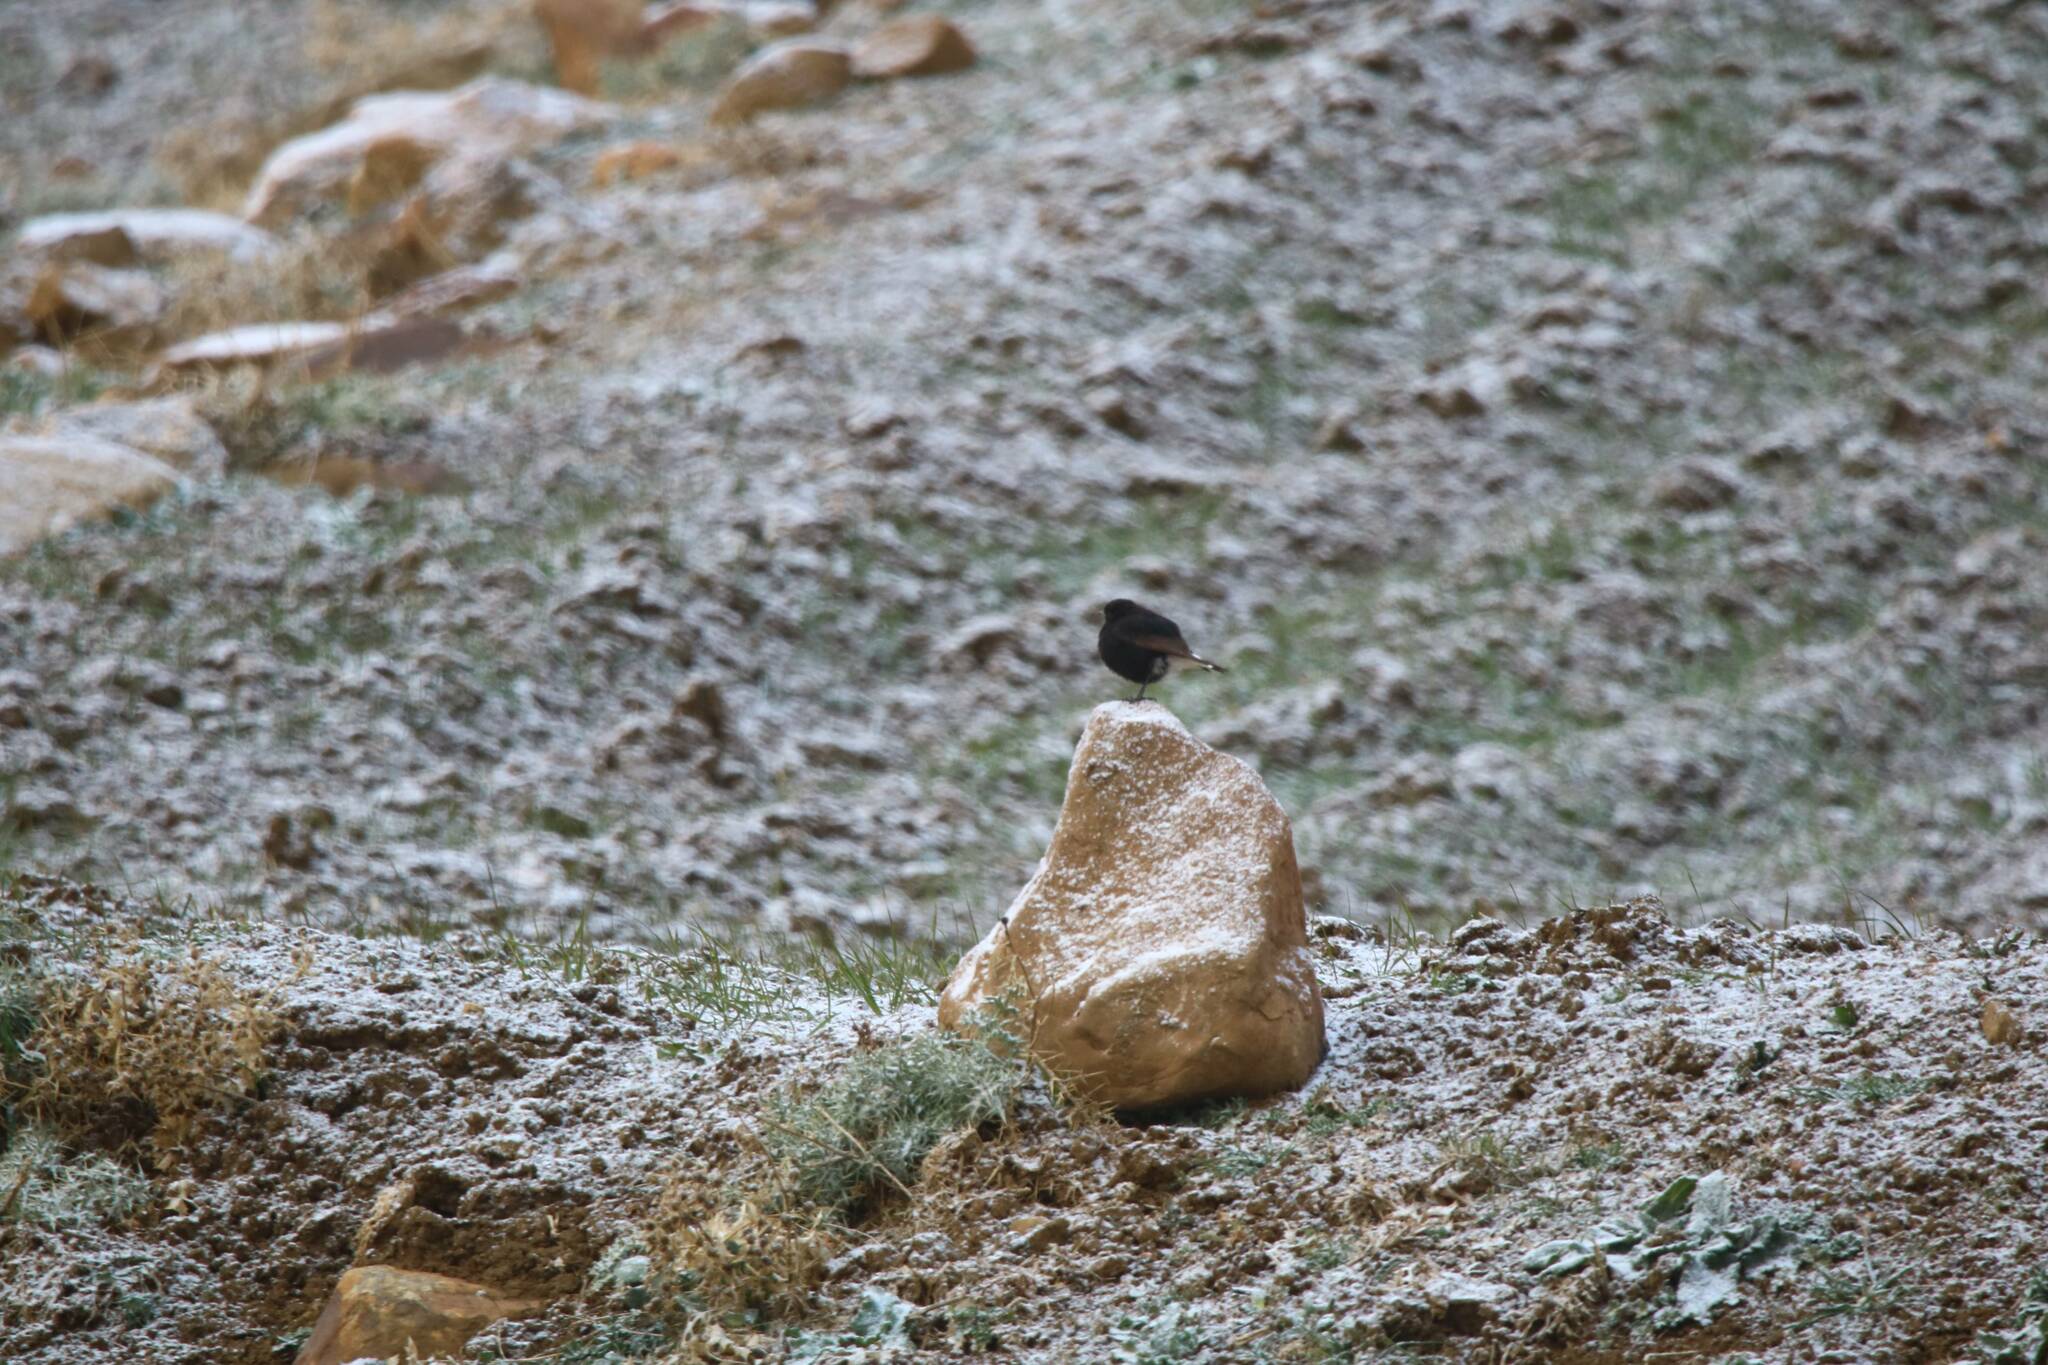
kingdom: Animalia
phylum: Chordata
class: Aves
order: Passeriformes
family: Muscicapidae
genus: Oenanthe
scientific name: Oenanthe leucura
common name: Black wheatear
